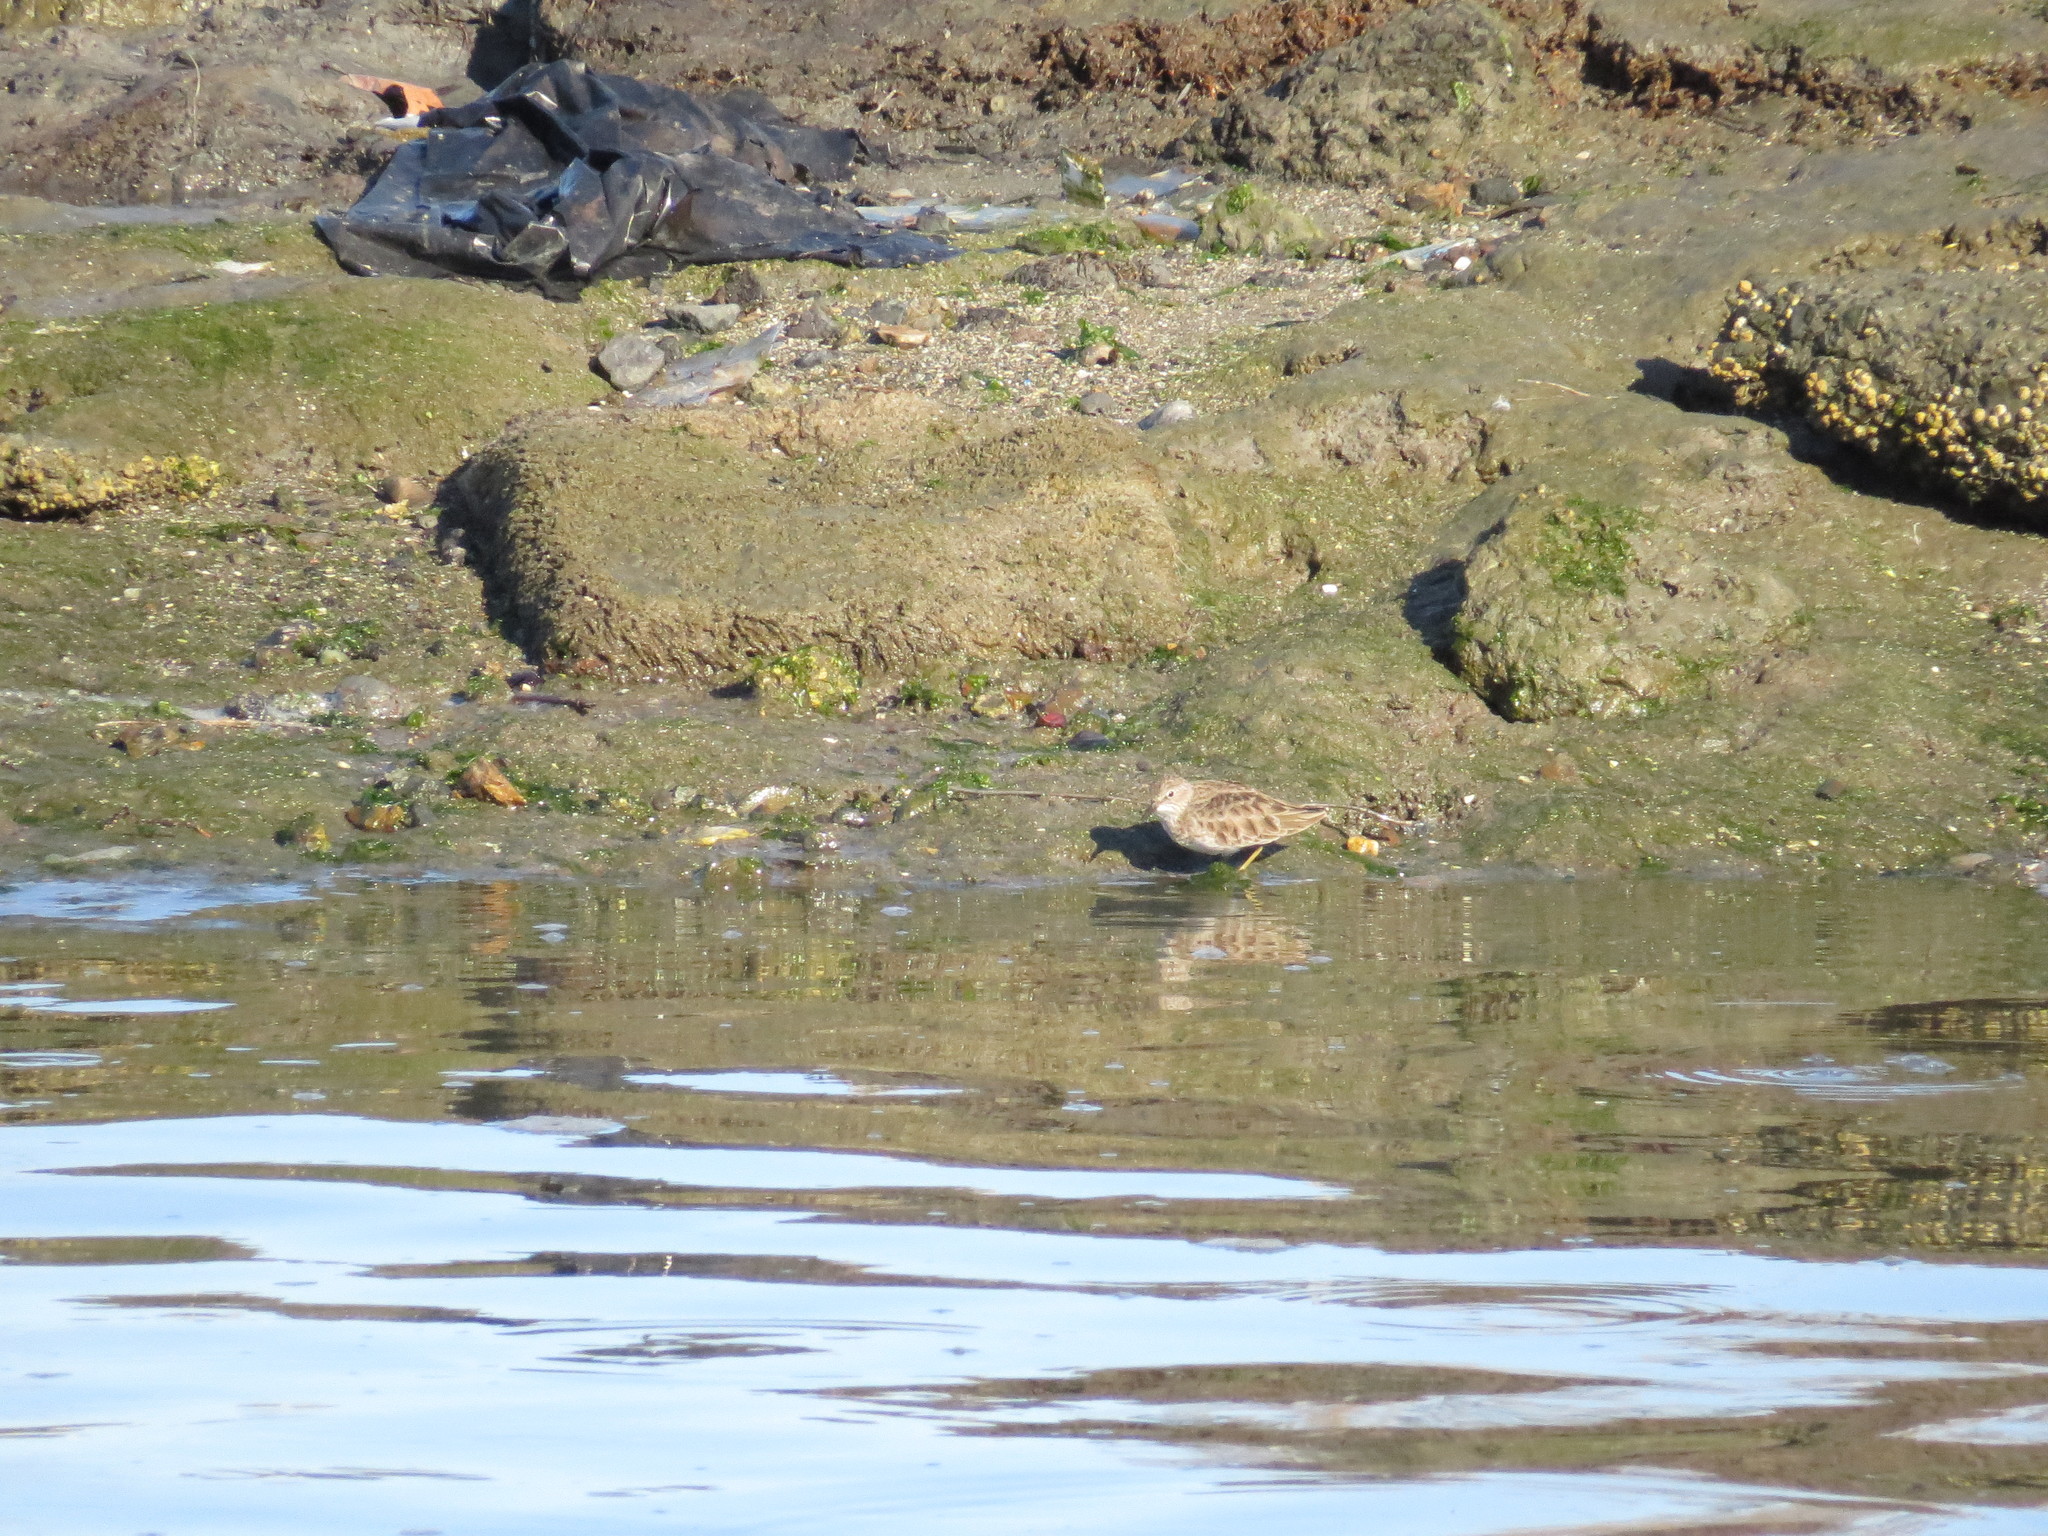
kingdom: Animalia
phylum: Chordata
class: Aves
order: Charadriiformes
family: Scolopacidae
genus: Calidris
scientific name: Calidris minutilla
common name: Least sandpiper
